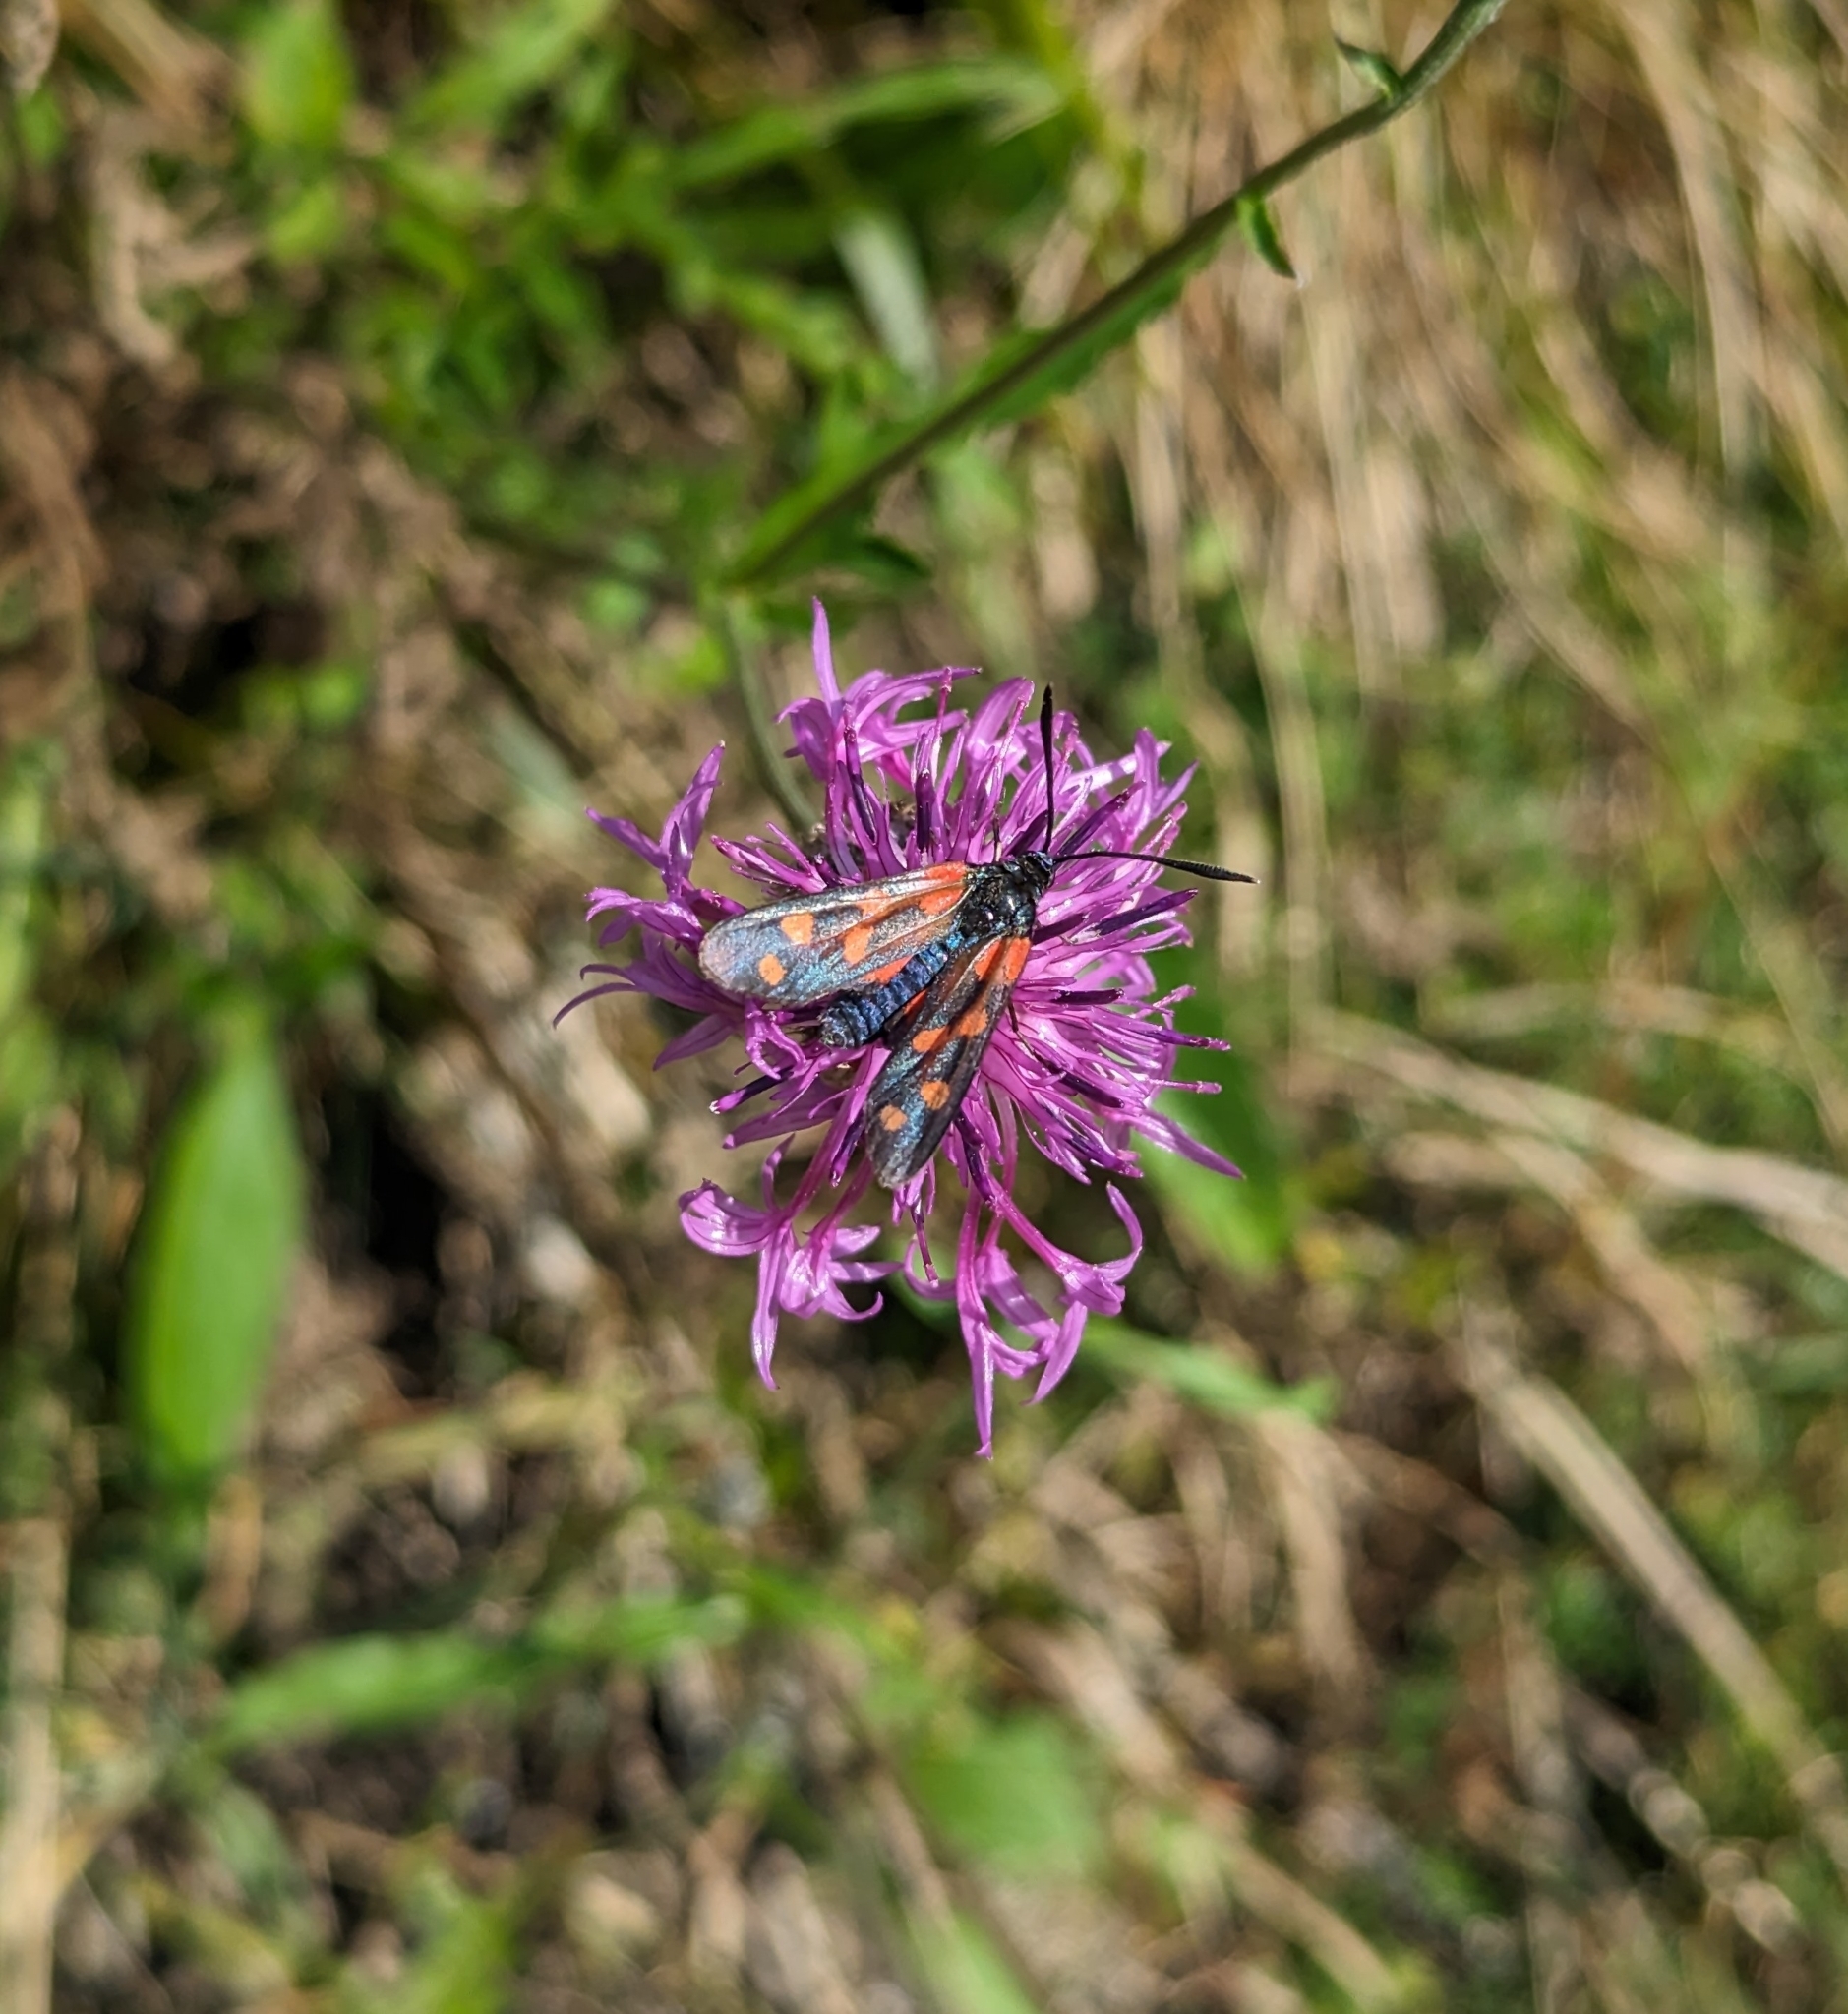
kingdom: Animalia
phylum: Arthropoda
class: Insecta
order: Lepidoptera
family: Zygaenidae
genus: Zygaena
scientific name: Zygaena transalpina
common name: Southern six spot burnet
